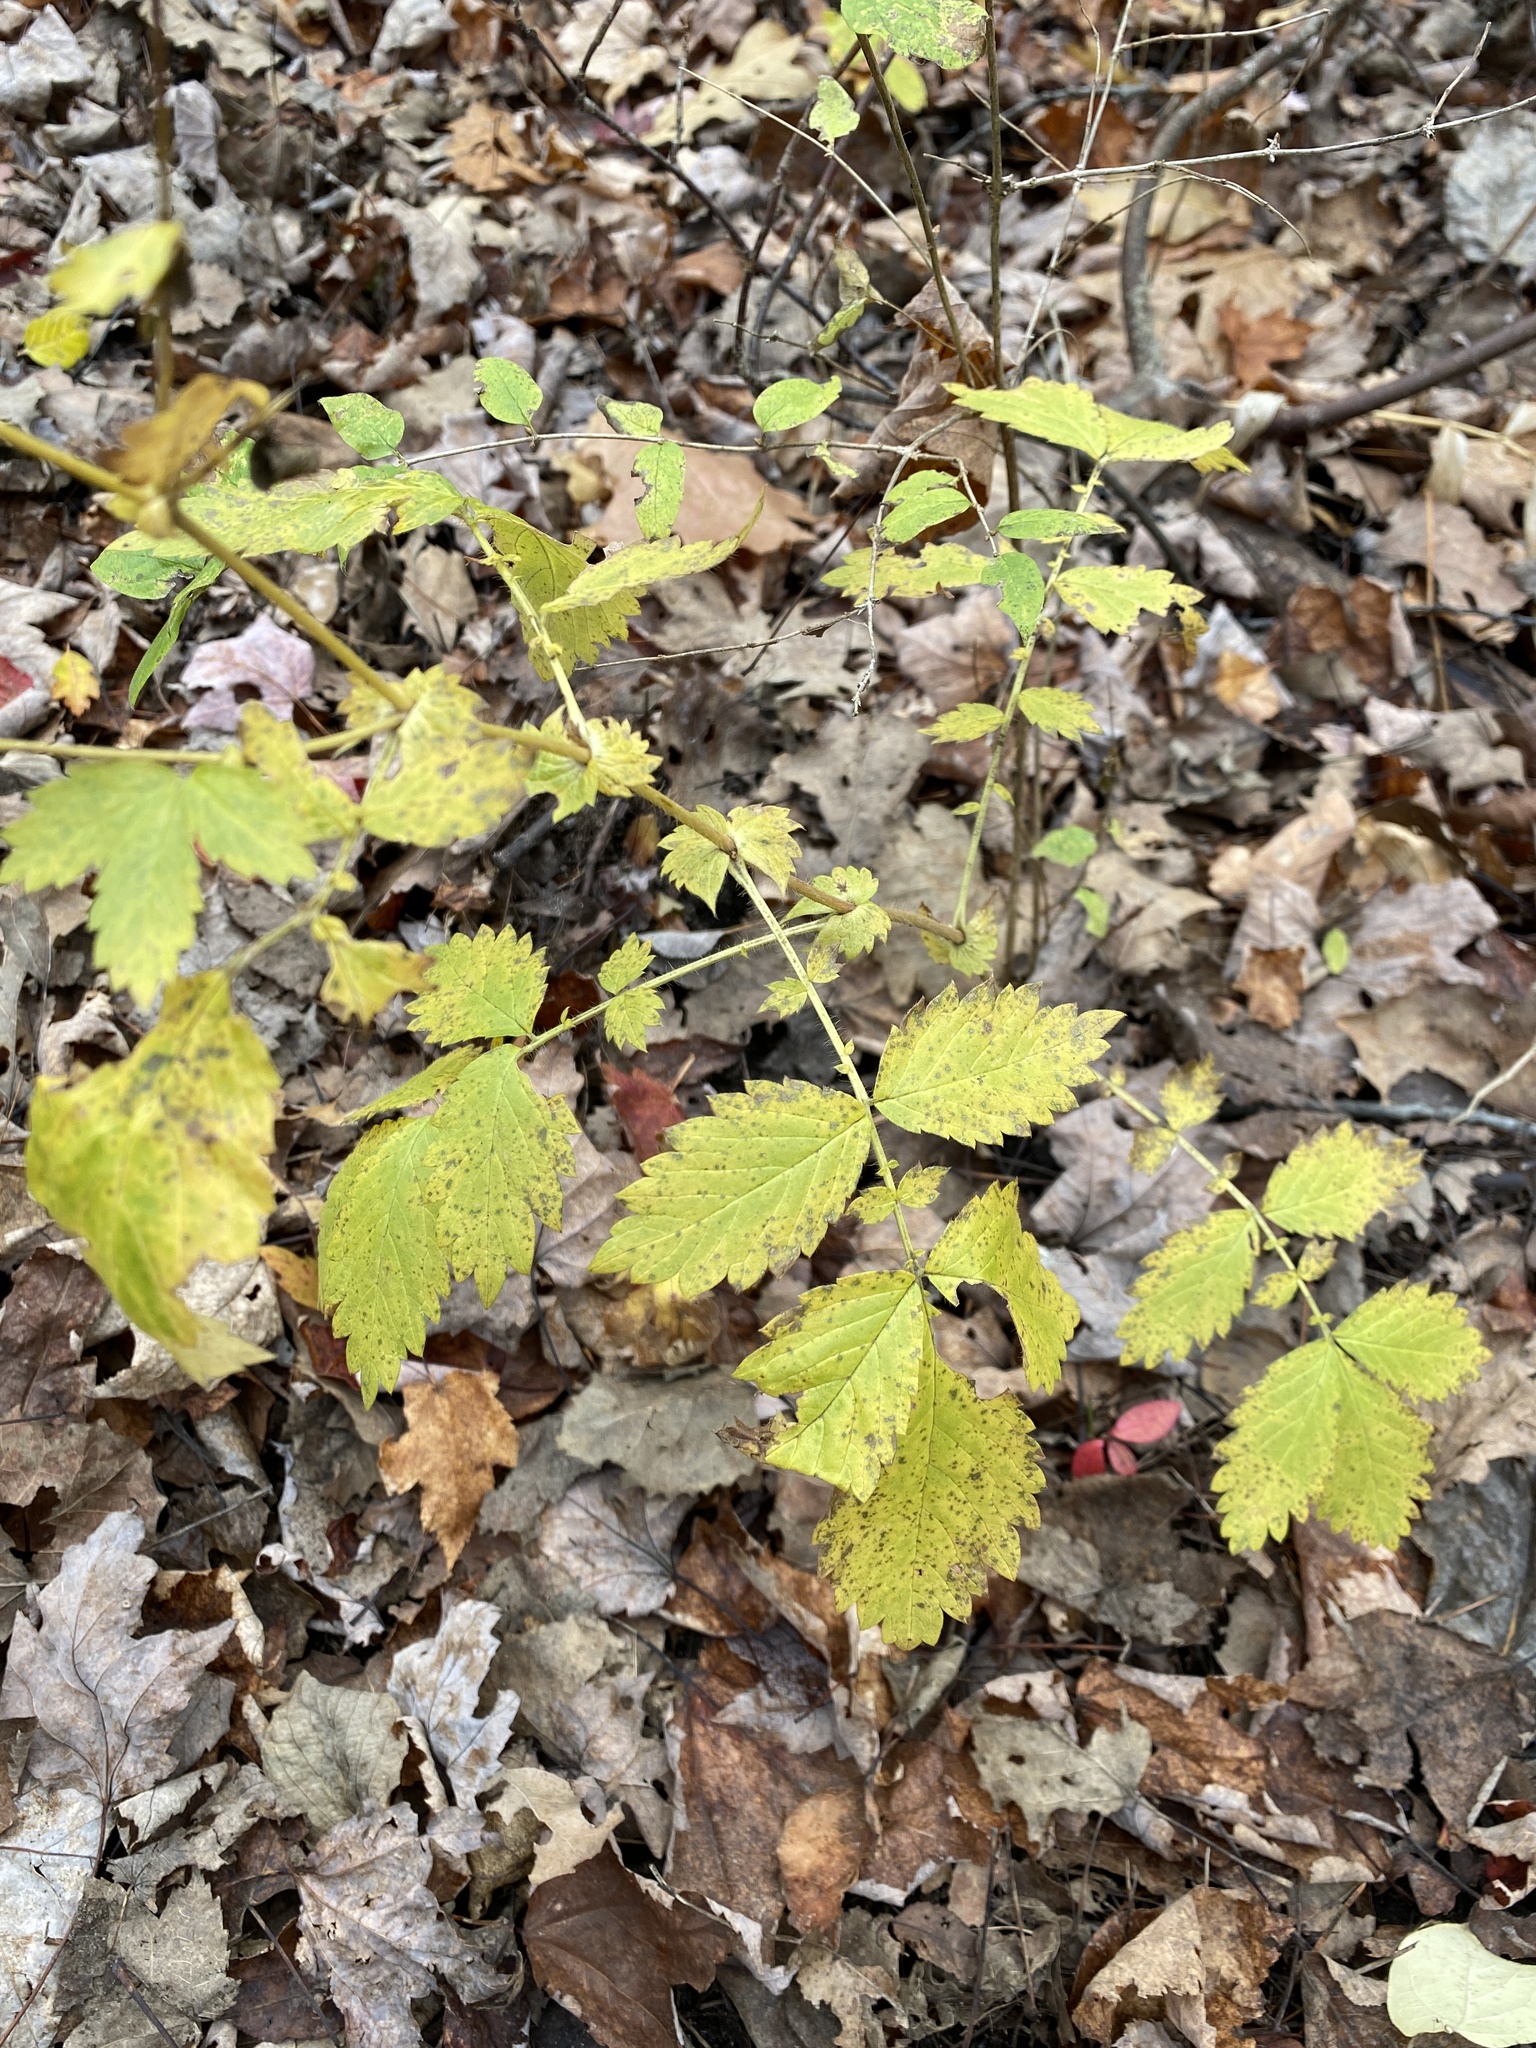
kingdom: Plantae
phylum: Tracheophyta
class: Magnoliopsida
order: Rosales
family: Rosaceae
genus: Agrimonia
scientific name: Agrimonia gryposepala
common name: Common agrimony
